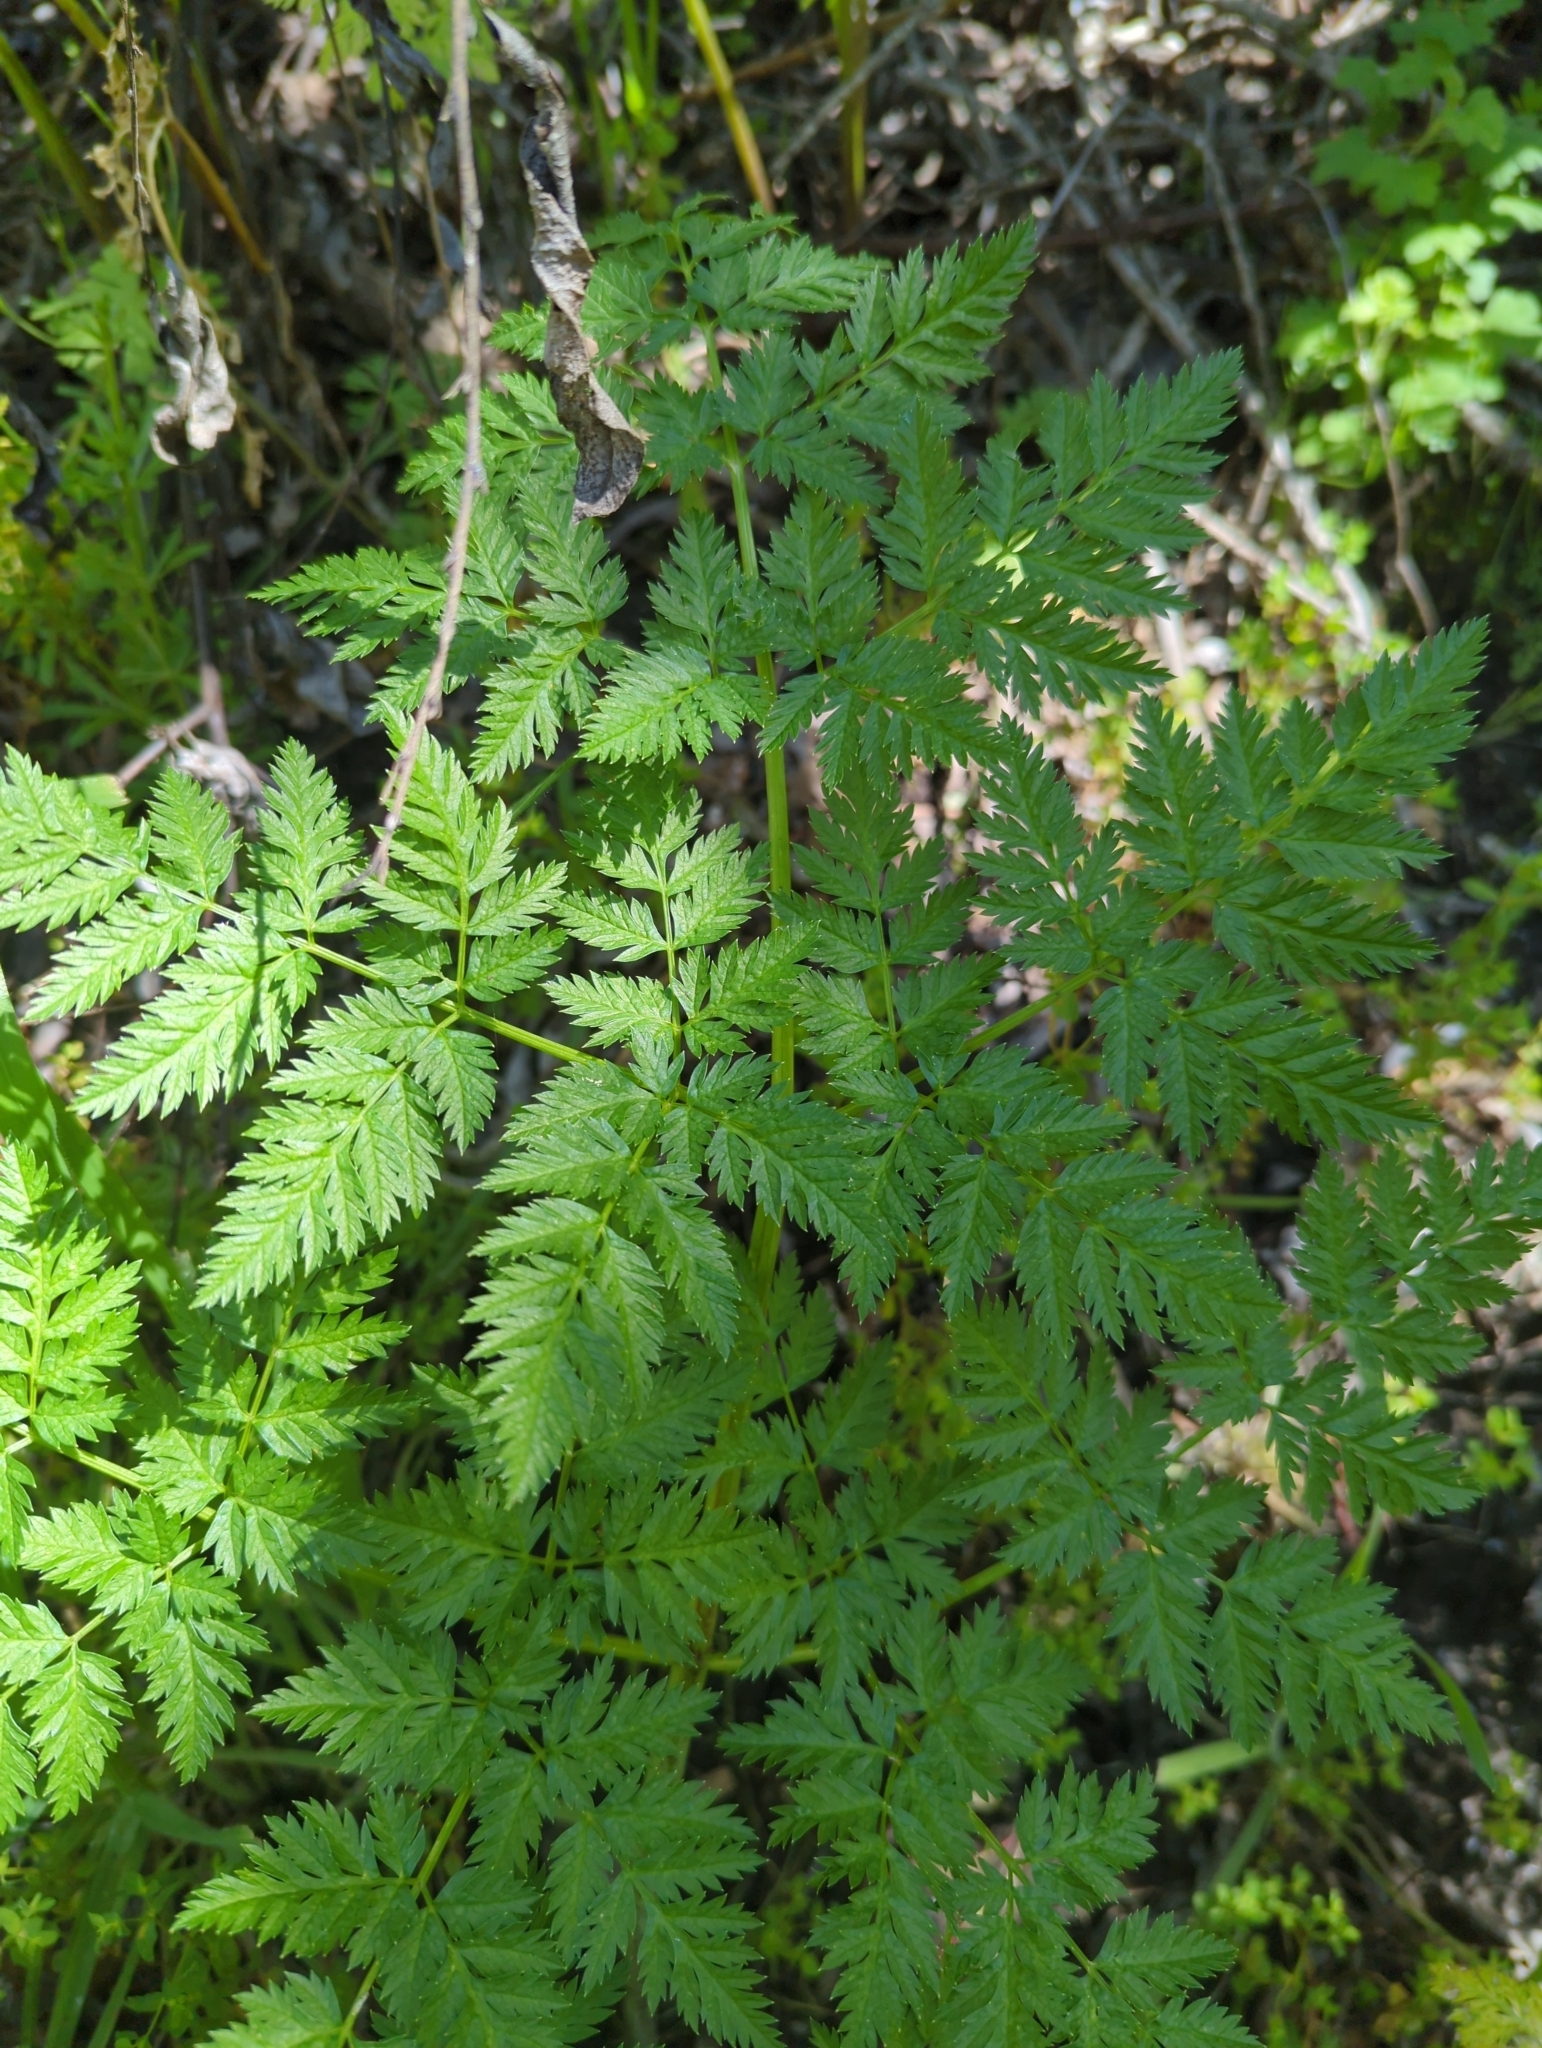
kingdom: Plantae
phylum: Tracheophyta
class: Magnoliopsida
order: Apiales
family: Apiaceae
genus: Conium
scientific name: Conium maculatum
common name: Hemlock
